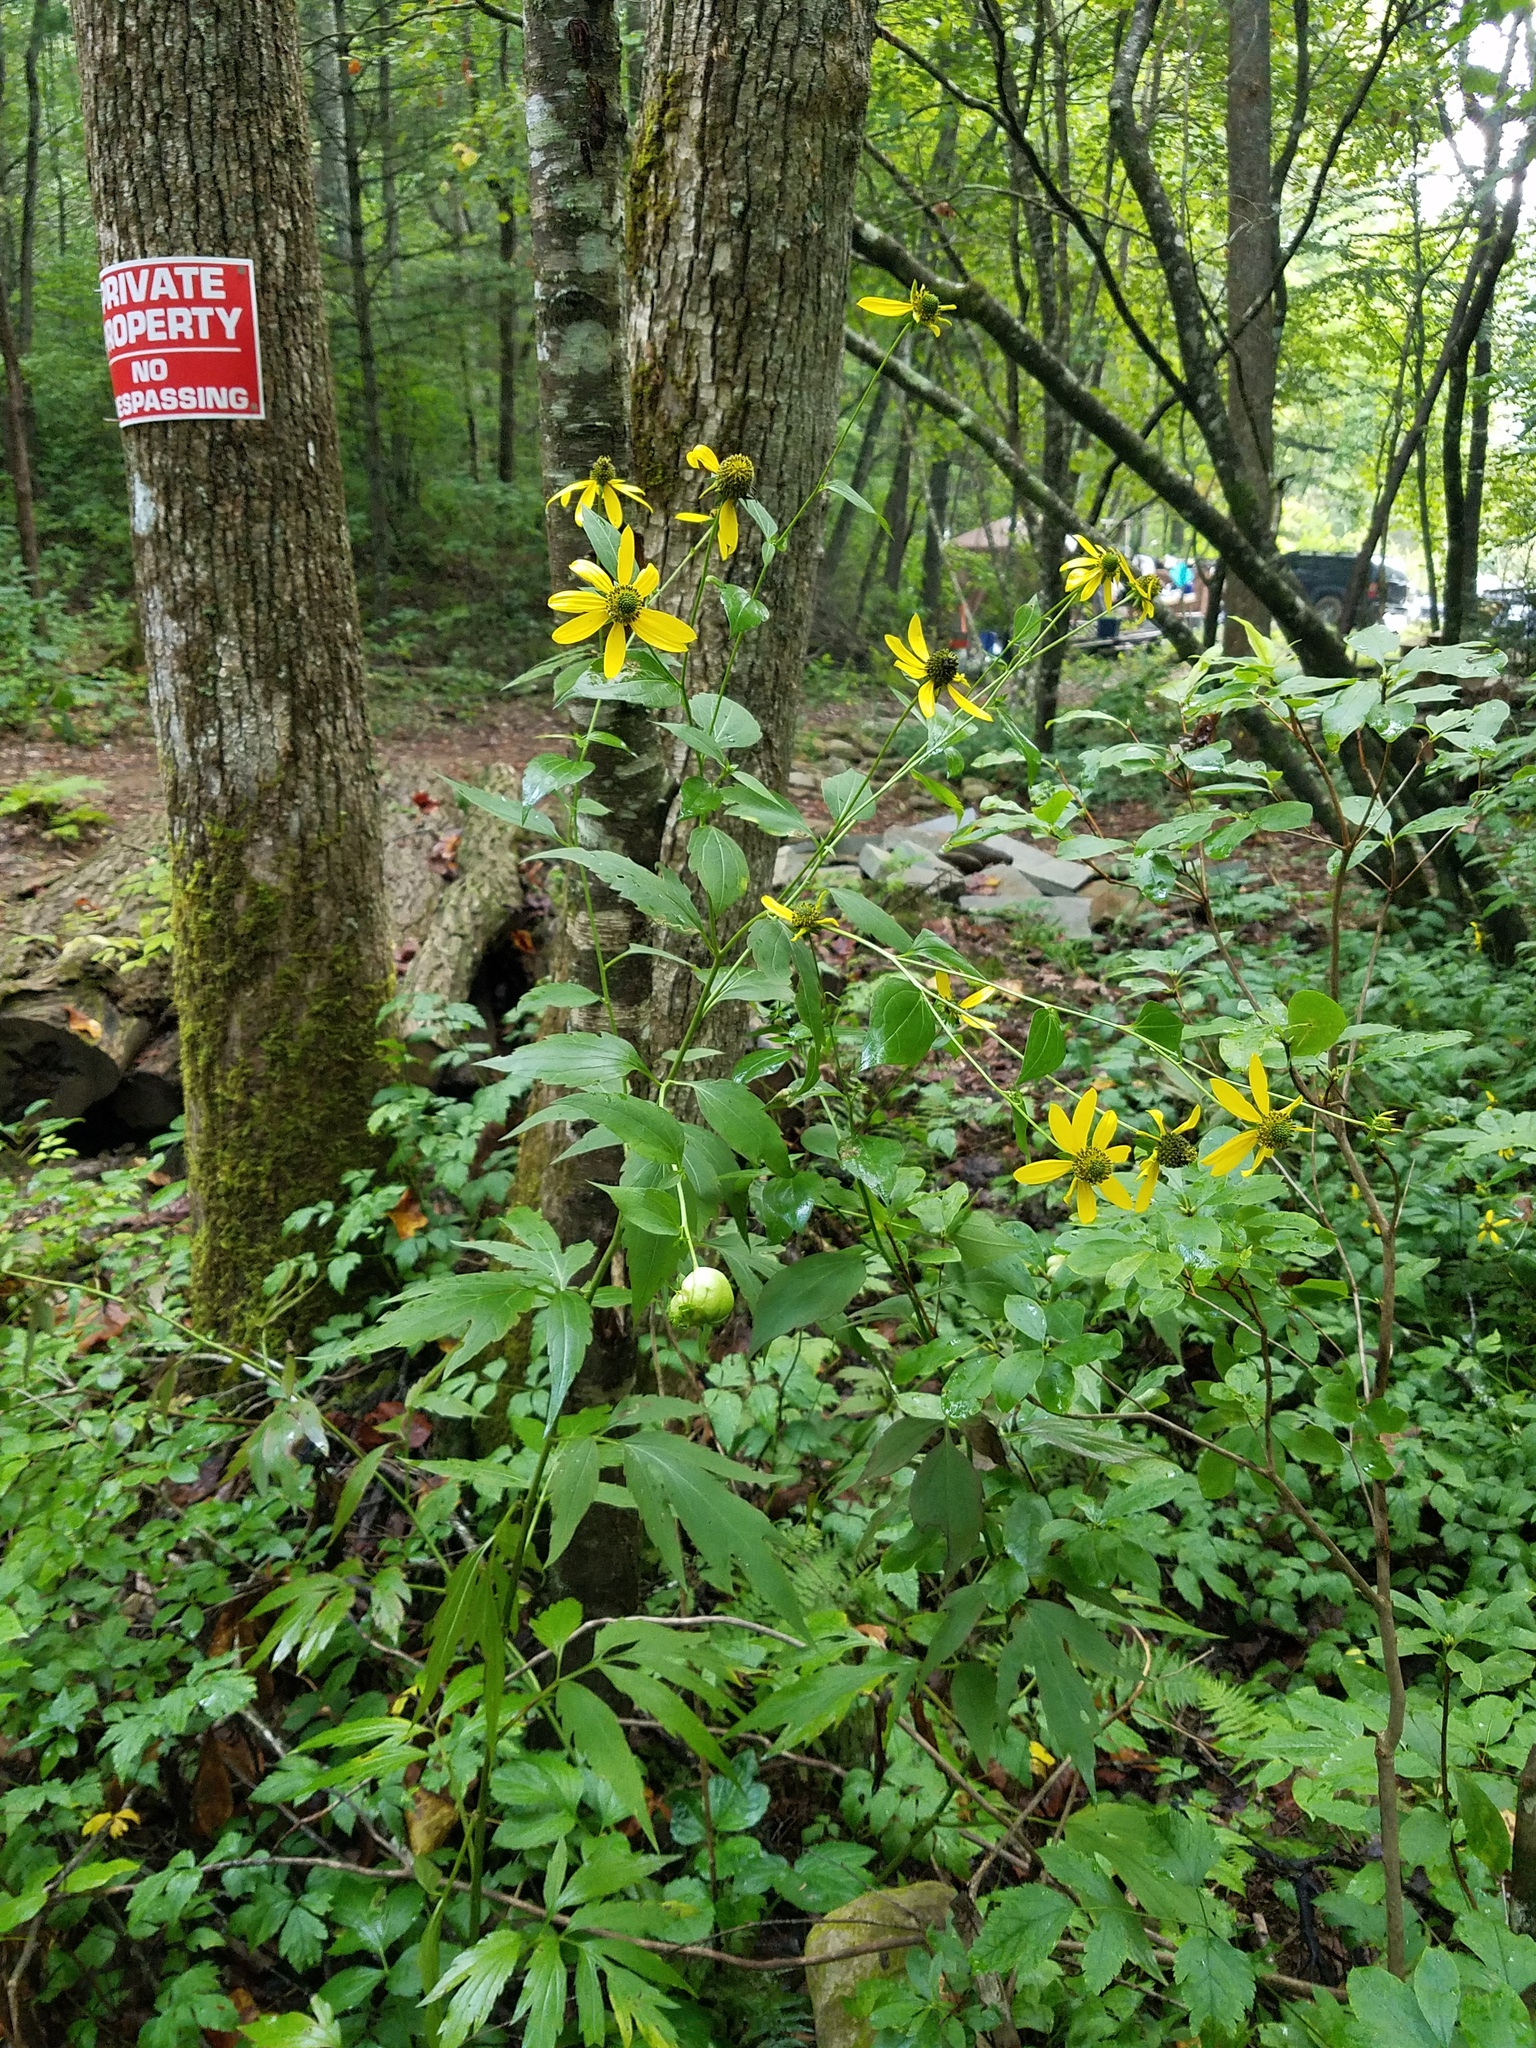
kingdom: Plantae
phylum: Tracheophyta
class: Magnoliopsida
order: Asterales
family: Asteraceae
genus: Rudbeckia
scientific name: Rudbeckia laciniata
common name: Coneflower
